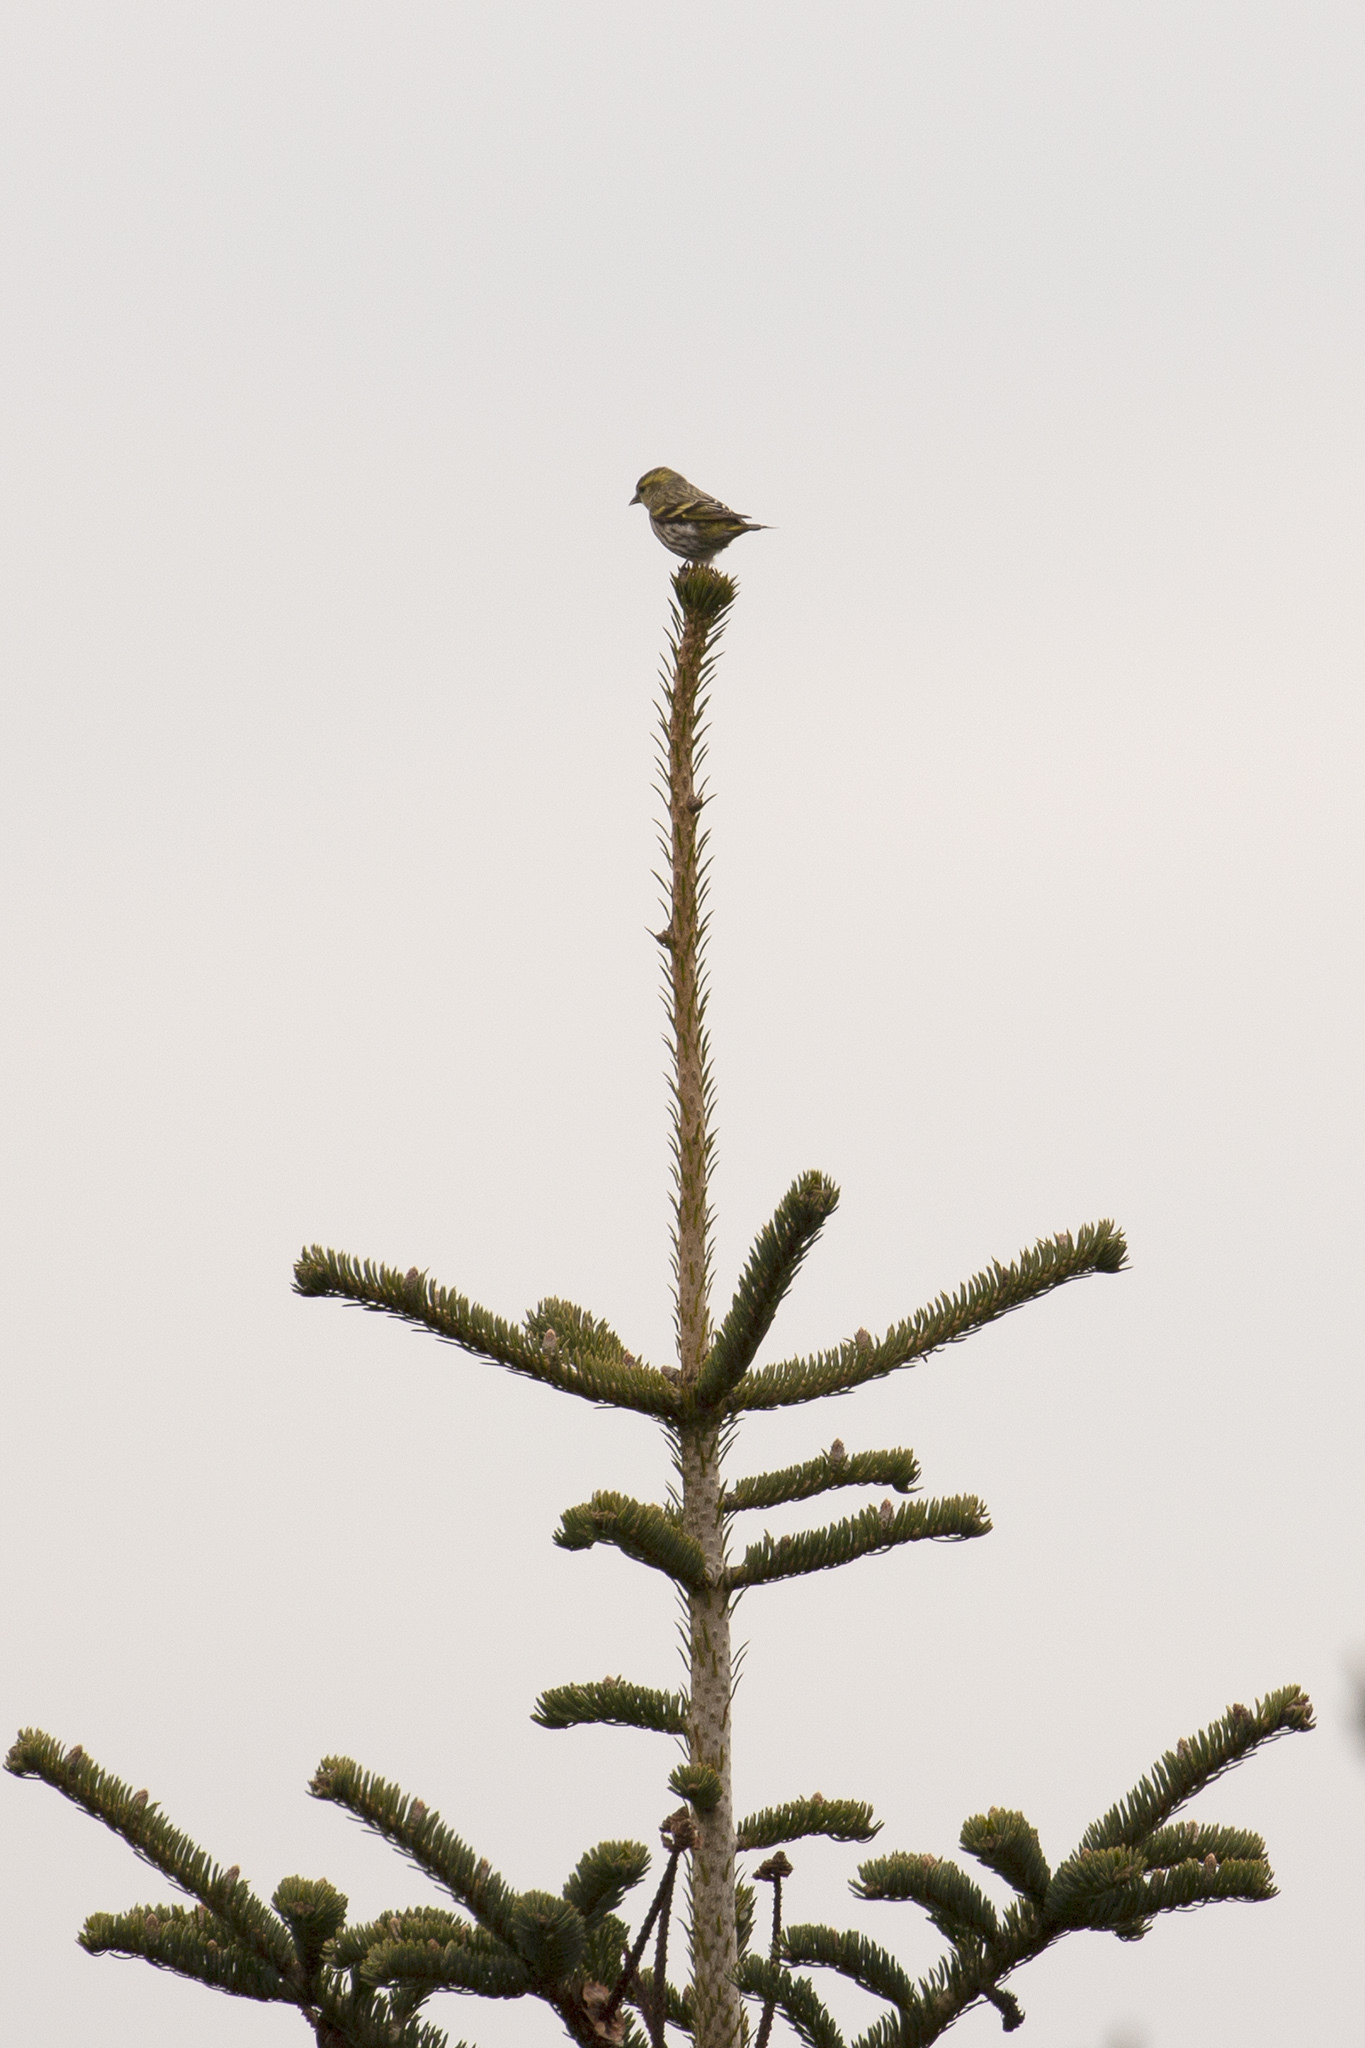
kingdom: Animalia
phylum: Chordata
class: Aves
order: Passeriformes
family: Fringillidae
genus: Spinus
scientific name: Spinus spinus
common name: Eurasian siskin
